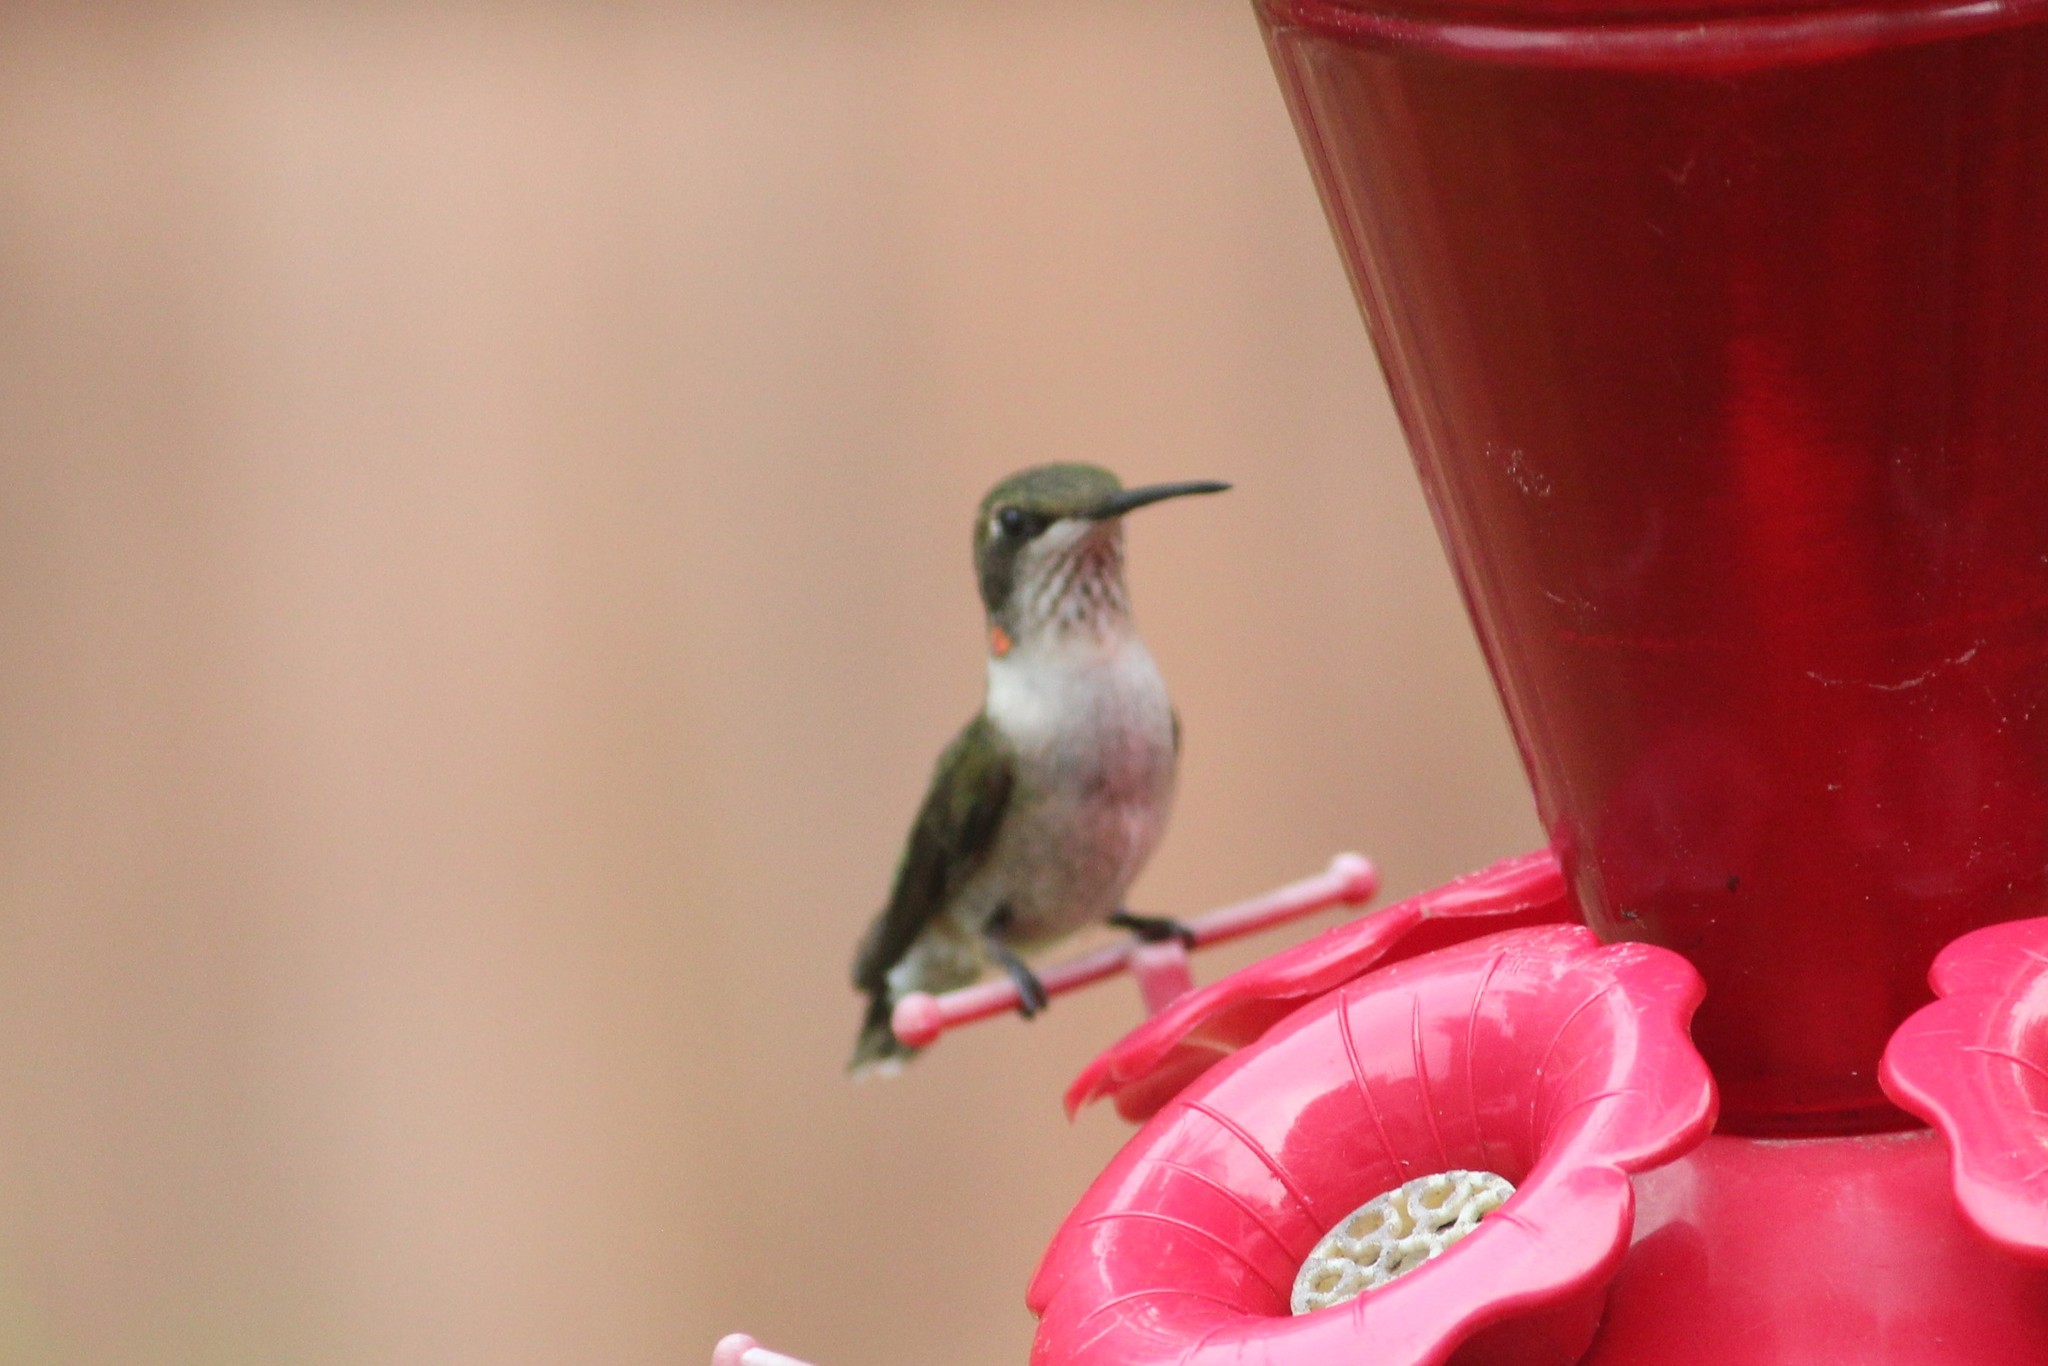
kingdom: Animalia
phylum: Chordata
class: Aves
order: Apodiformes
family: Trochilidae
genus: Archilochus
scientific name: Archilochus colubris
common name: Ruby-throated hummingbird
